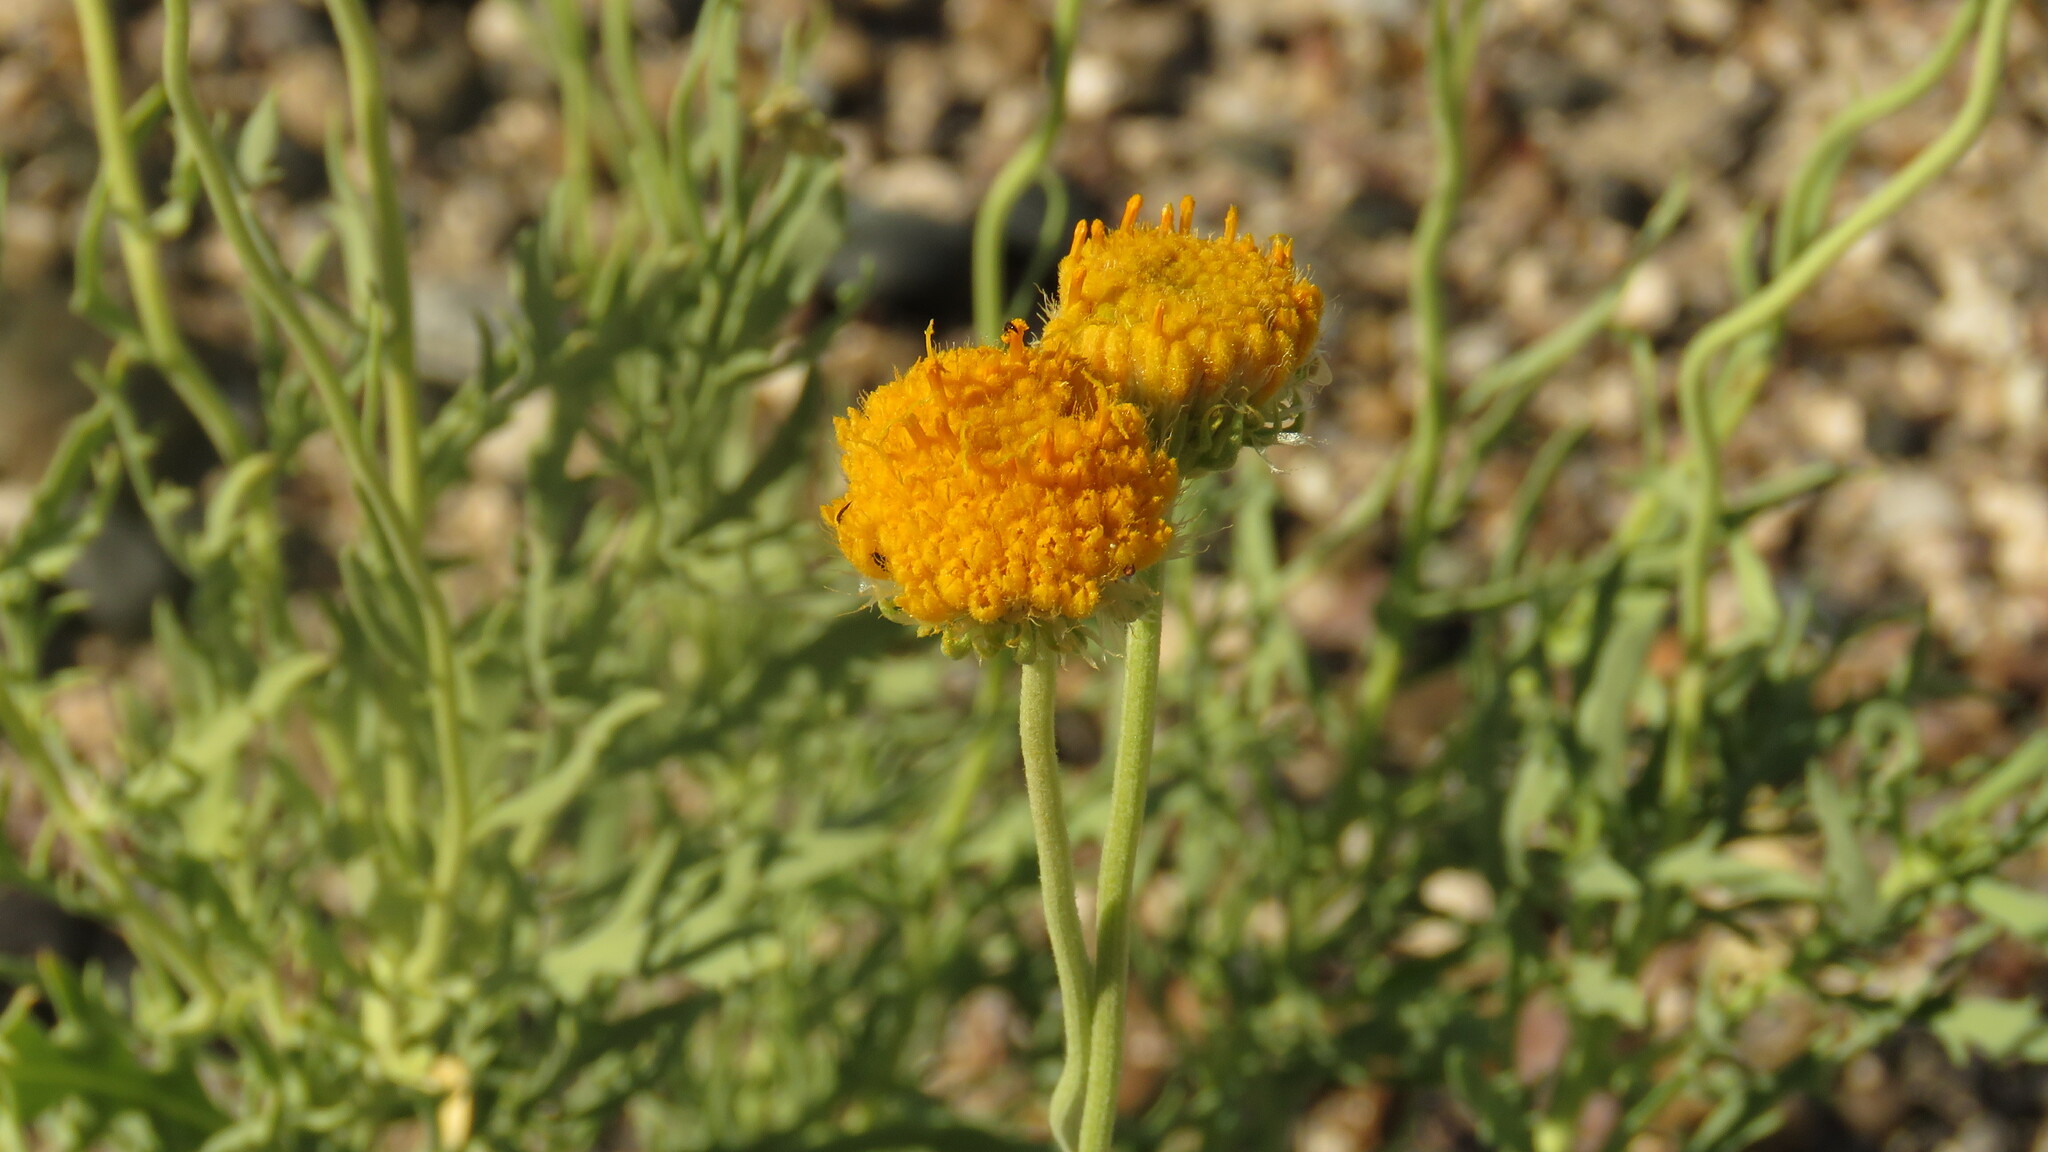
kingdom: Plantae
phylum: Tracheophyta
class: Magnoliopsida
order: Asterales
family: Asteraceae
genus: Gaillardia
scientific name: Gaillardia megapotamica
